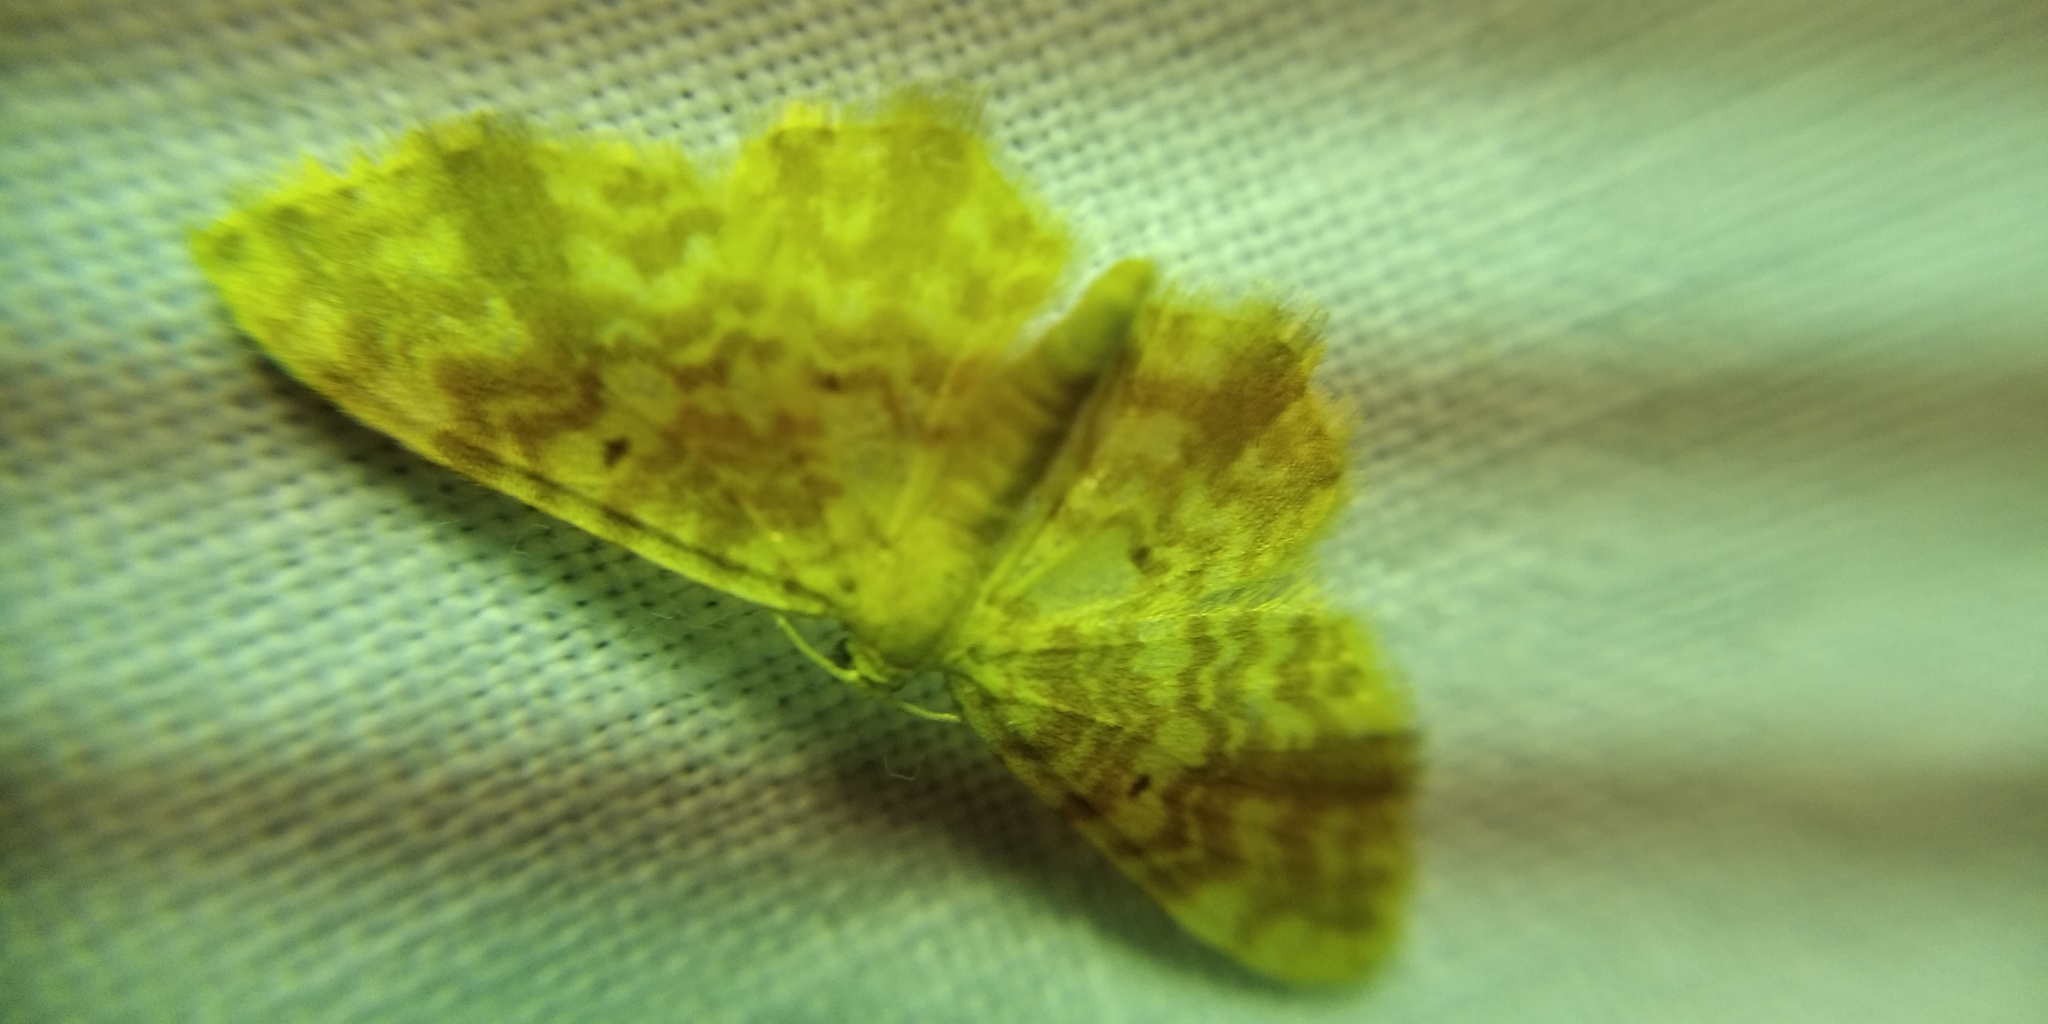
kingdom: Animalia
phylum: Arthropoda
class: Insecta
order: Lepidoptera
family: Geometridae
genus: Hydrelia
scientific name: Hydrelia flammeolaria
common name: Small yellow wave
